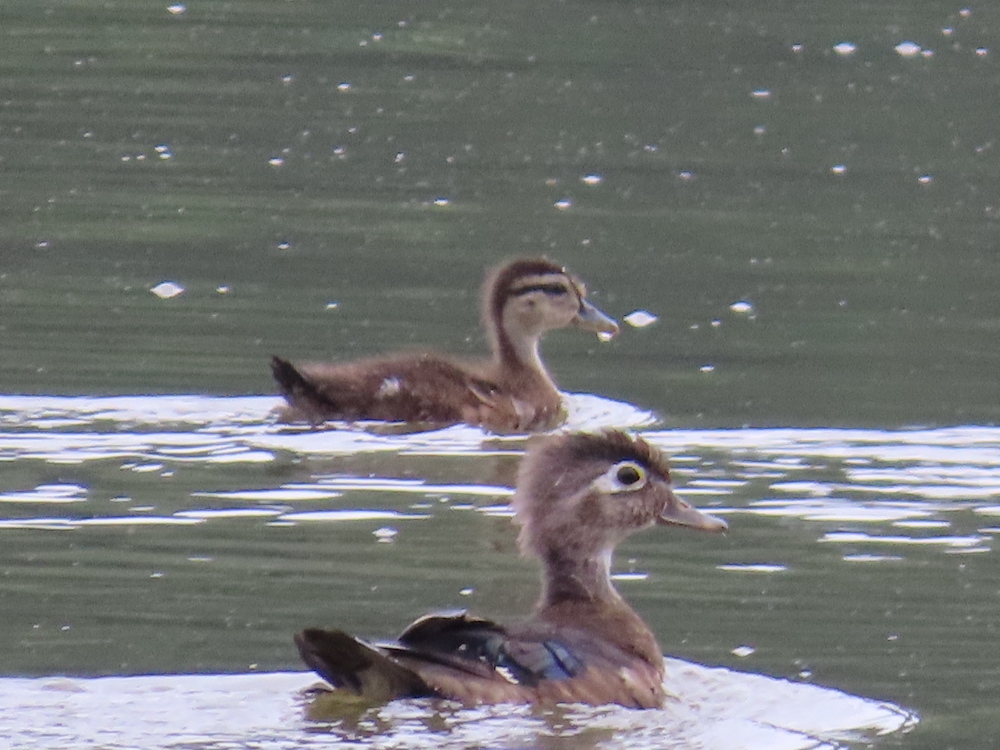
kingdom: Animalia
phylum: Chordata
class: Aves
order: Anseriformes
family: Anatidae
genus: Aix
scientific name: Aix sponsa
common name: Wood duck
